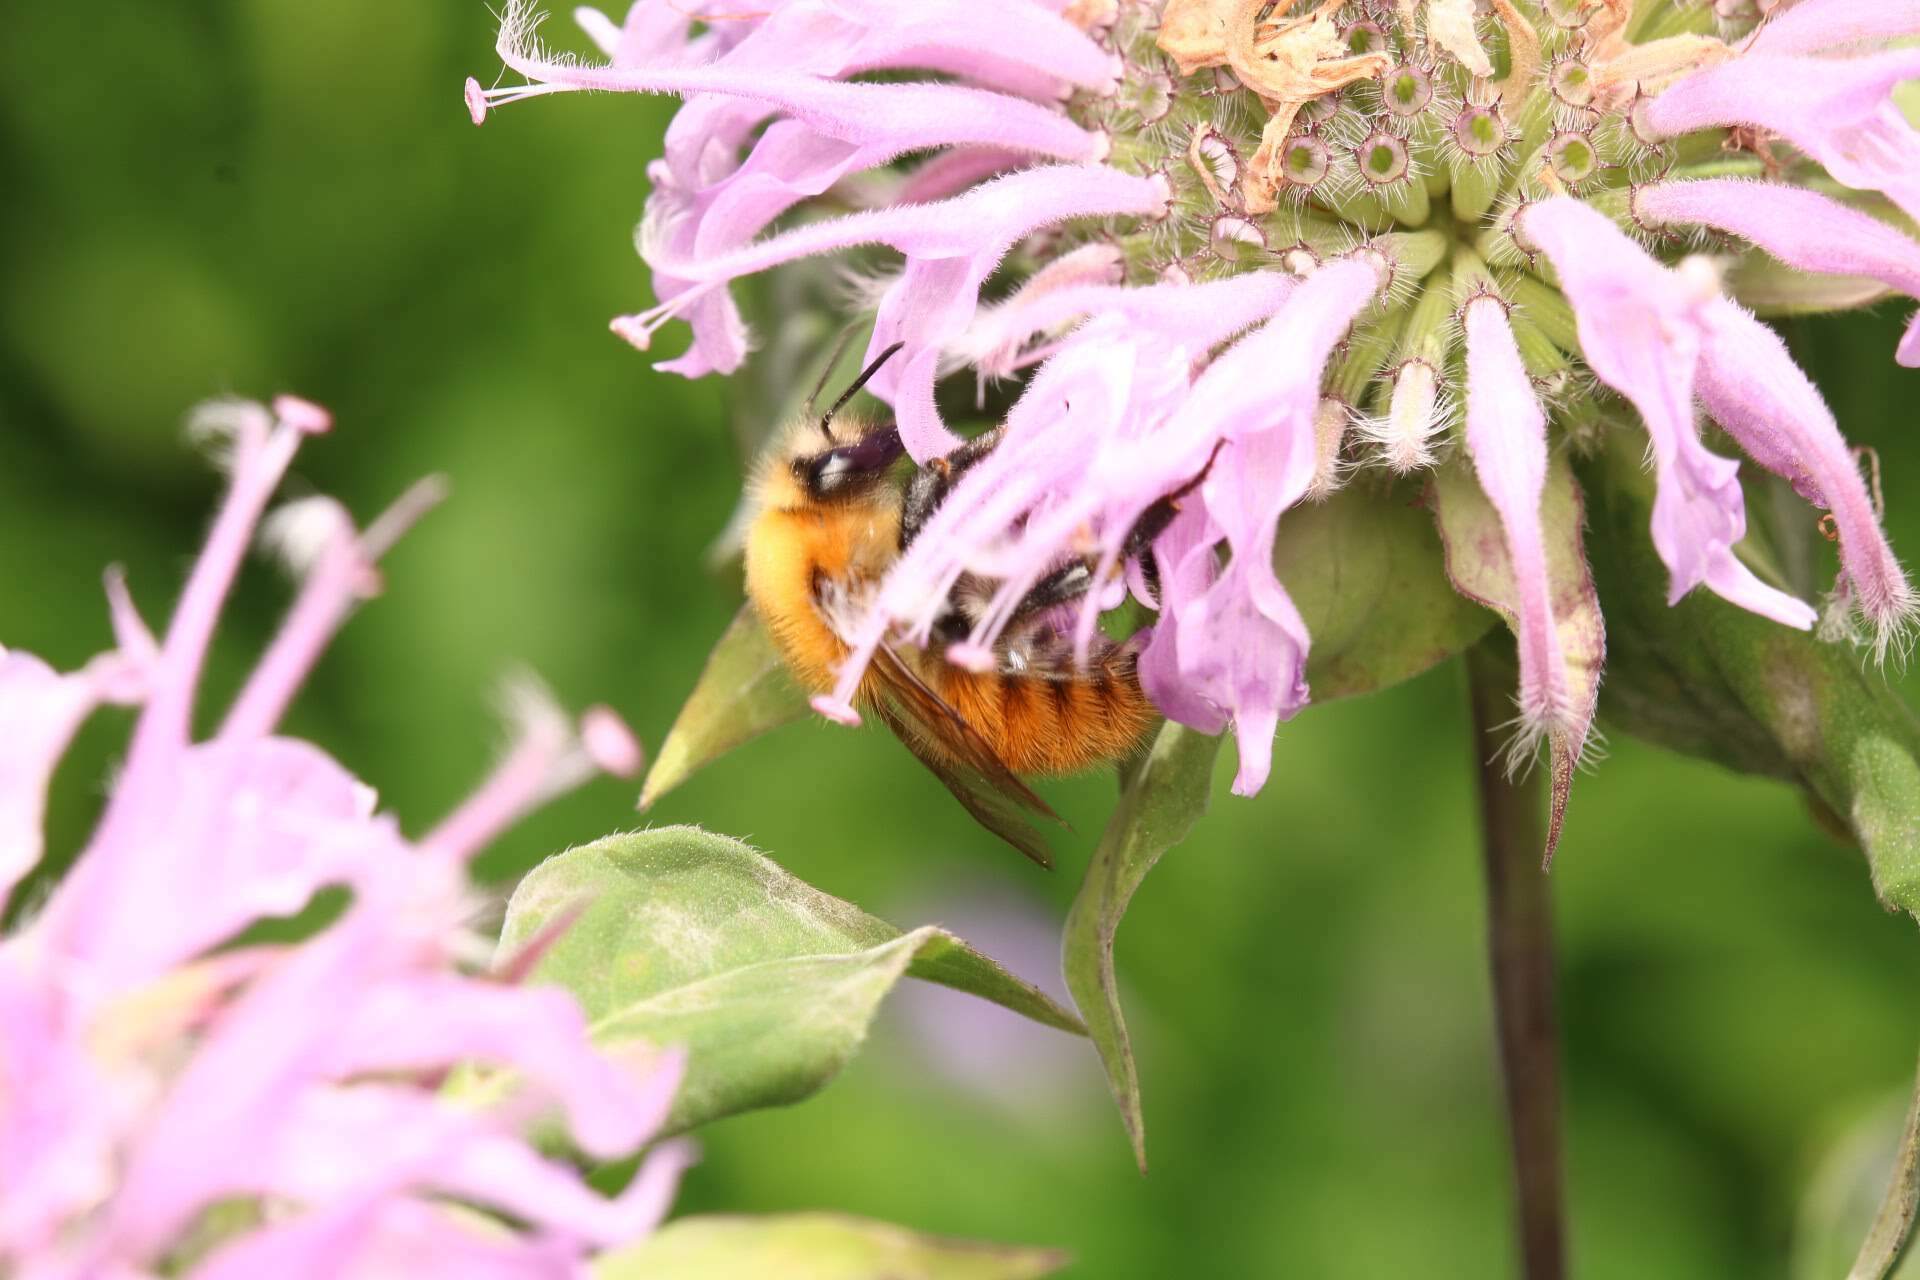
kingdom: Animalia
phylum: Arthropoda
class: Insecta
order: Hymenoptera
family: Apidae
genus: Bombus
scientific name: Bombus pascuorum
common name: Common carder bee
